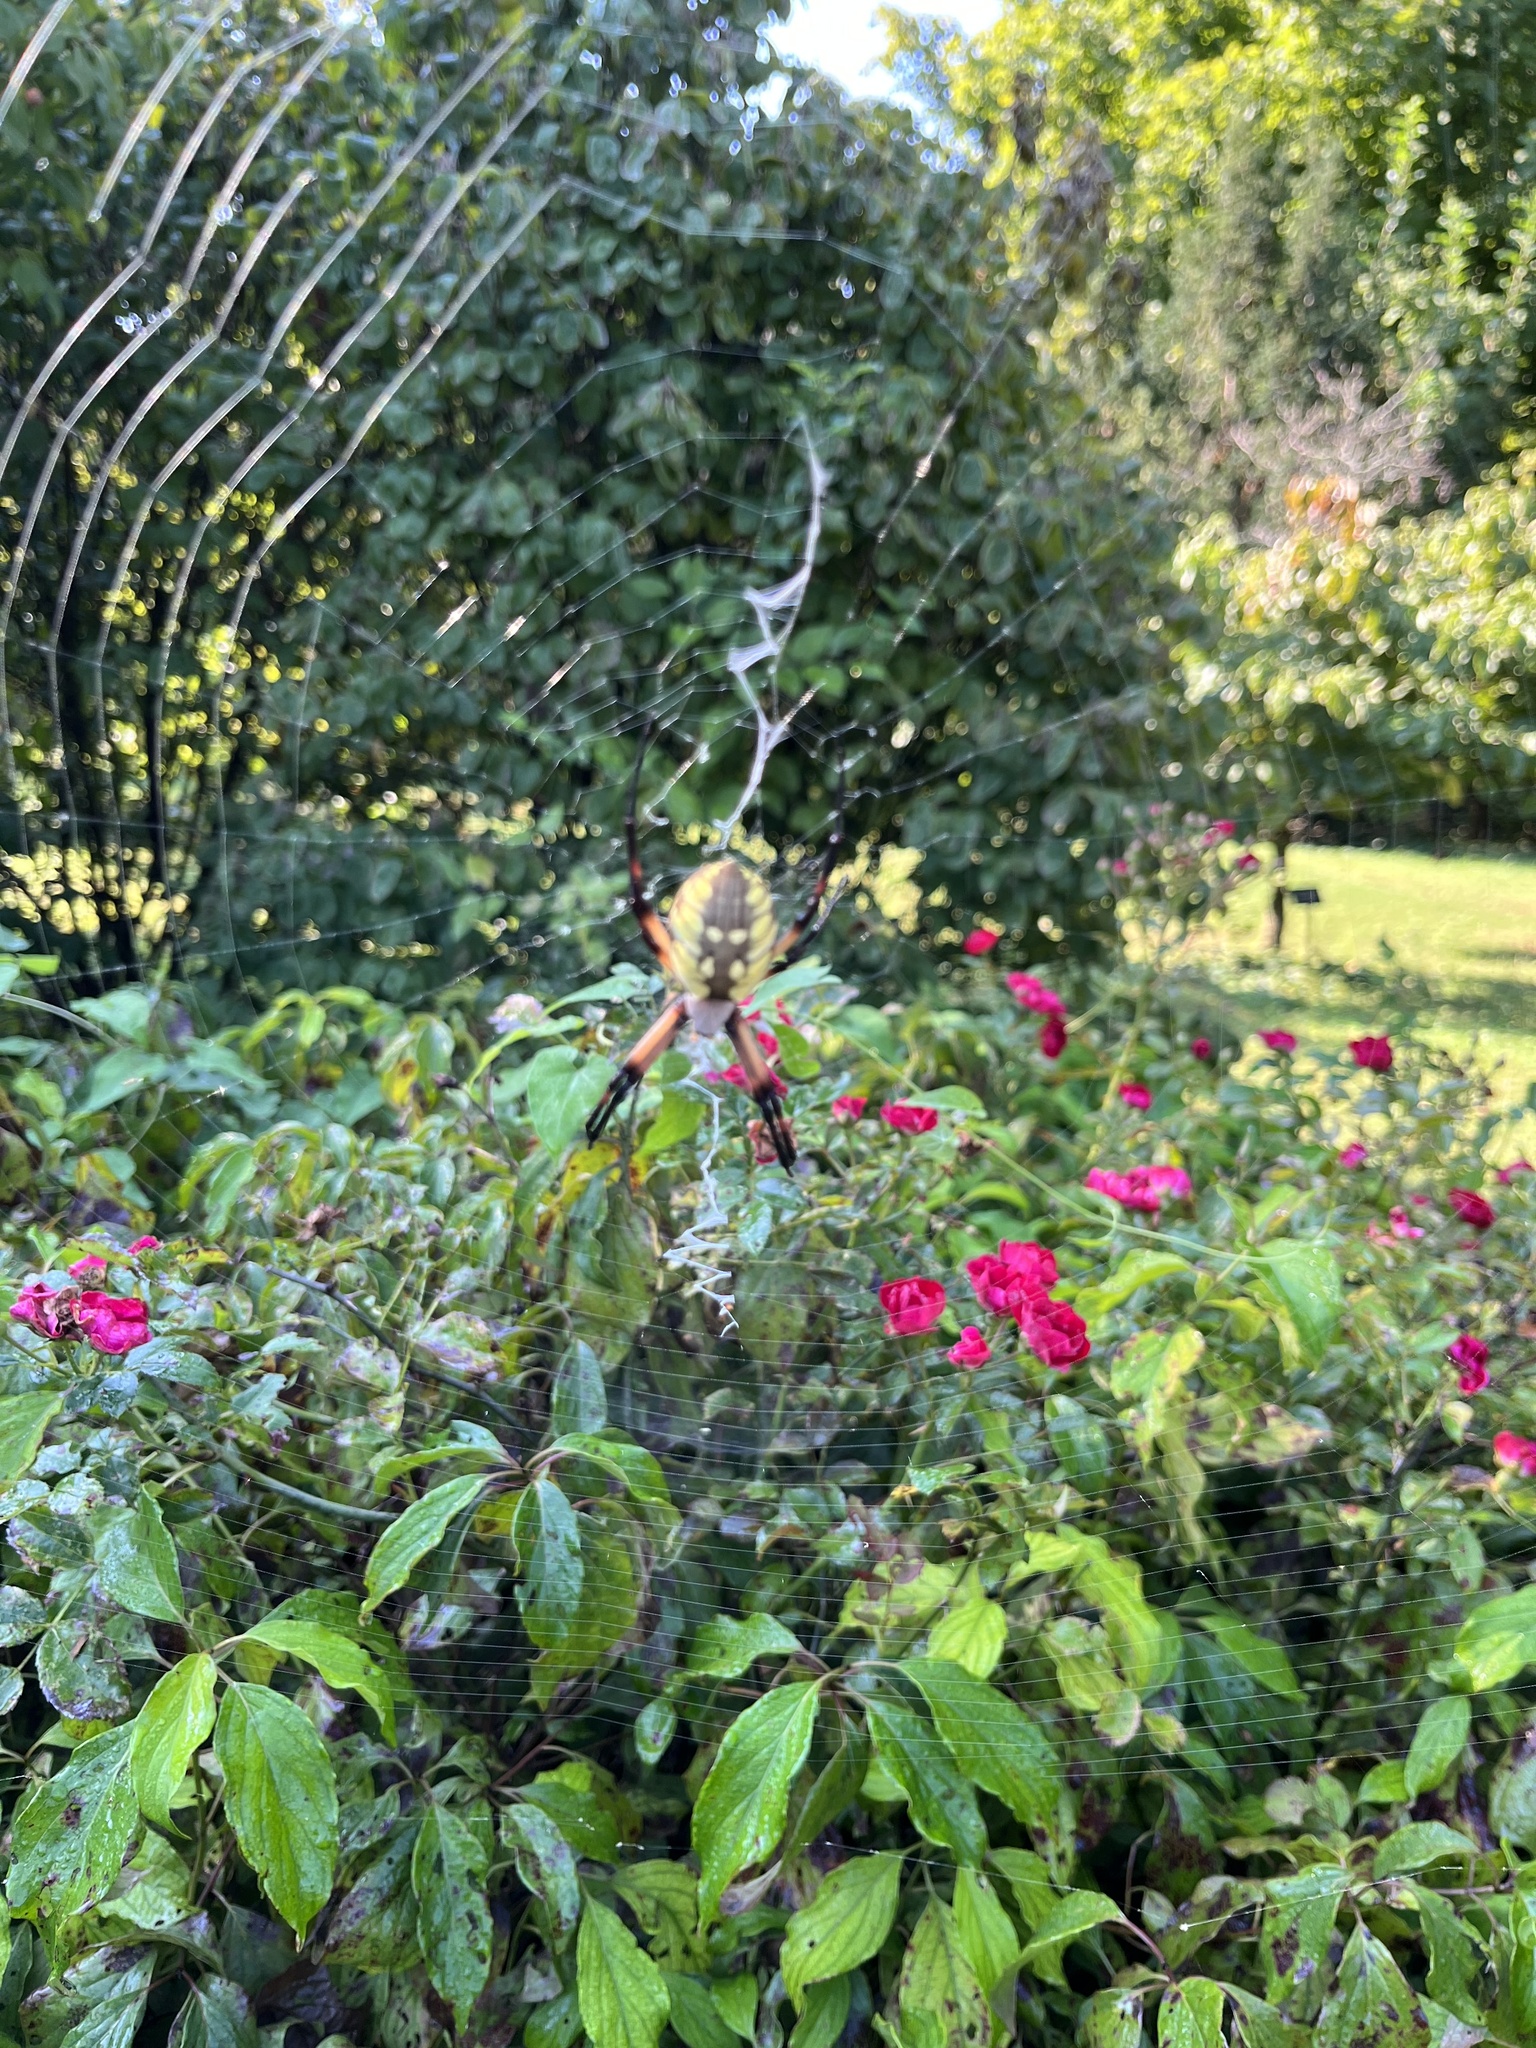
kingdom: Animalia
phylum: Arthropoda
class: Arachnida
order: Araneae
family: Araneidae
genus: Argiope
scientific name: Argiope aurantia
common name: Orb weavers
